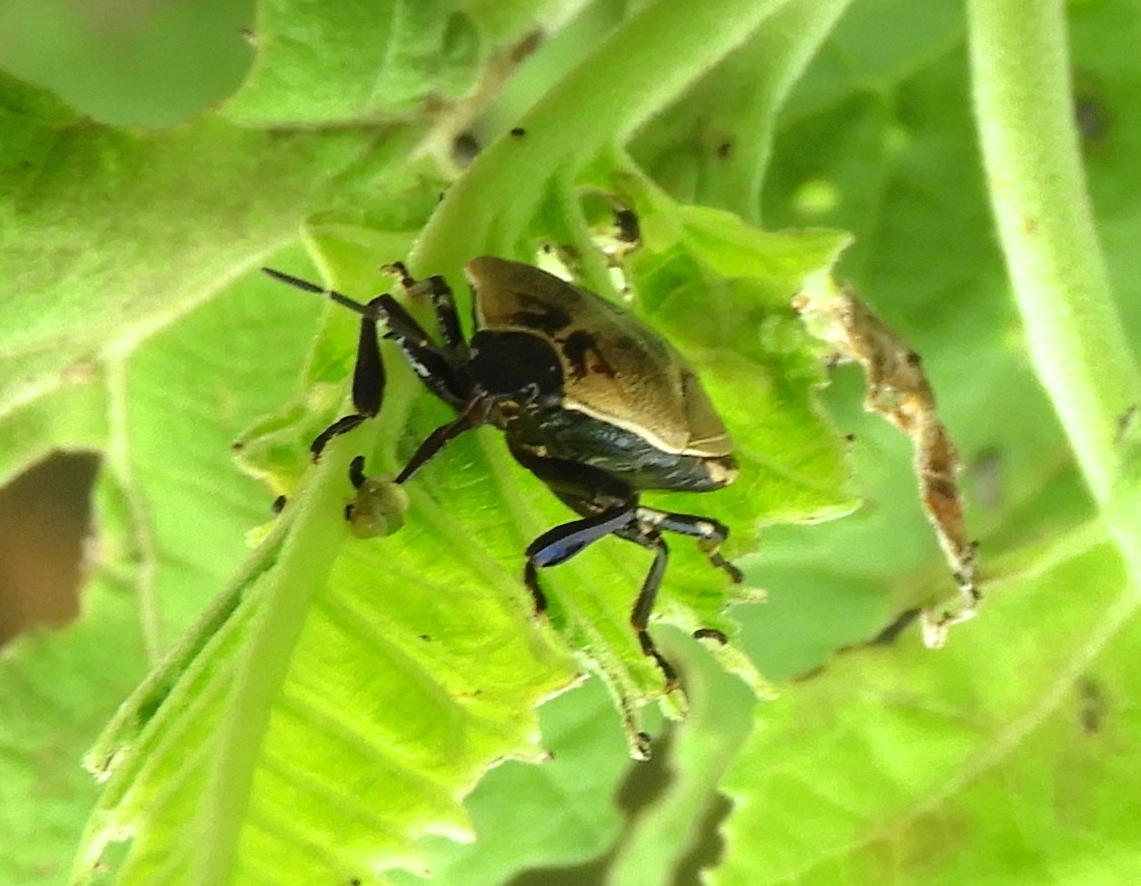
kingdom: Animalia
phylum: Arthropoda
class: Insecta
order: Hemiptera
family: Pentatomidae
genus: Oplomus
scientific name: Oplomus
